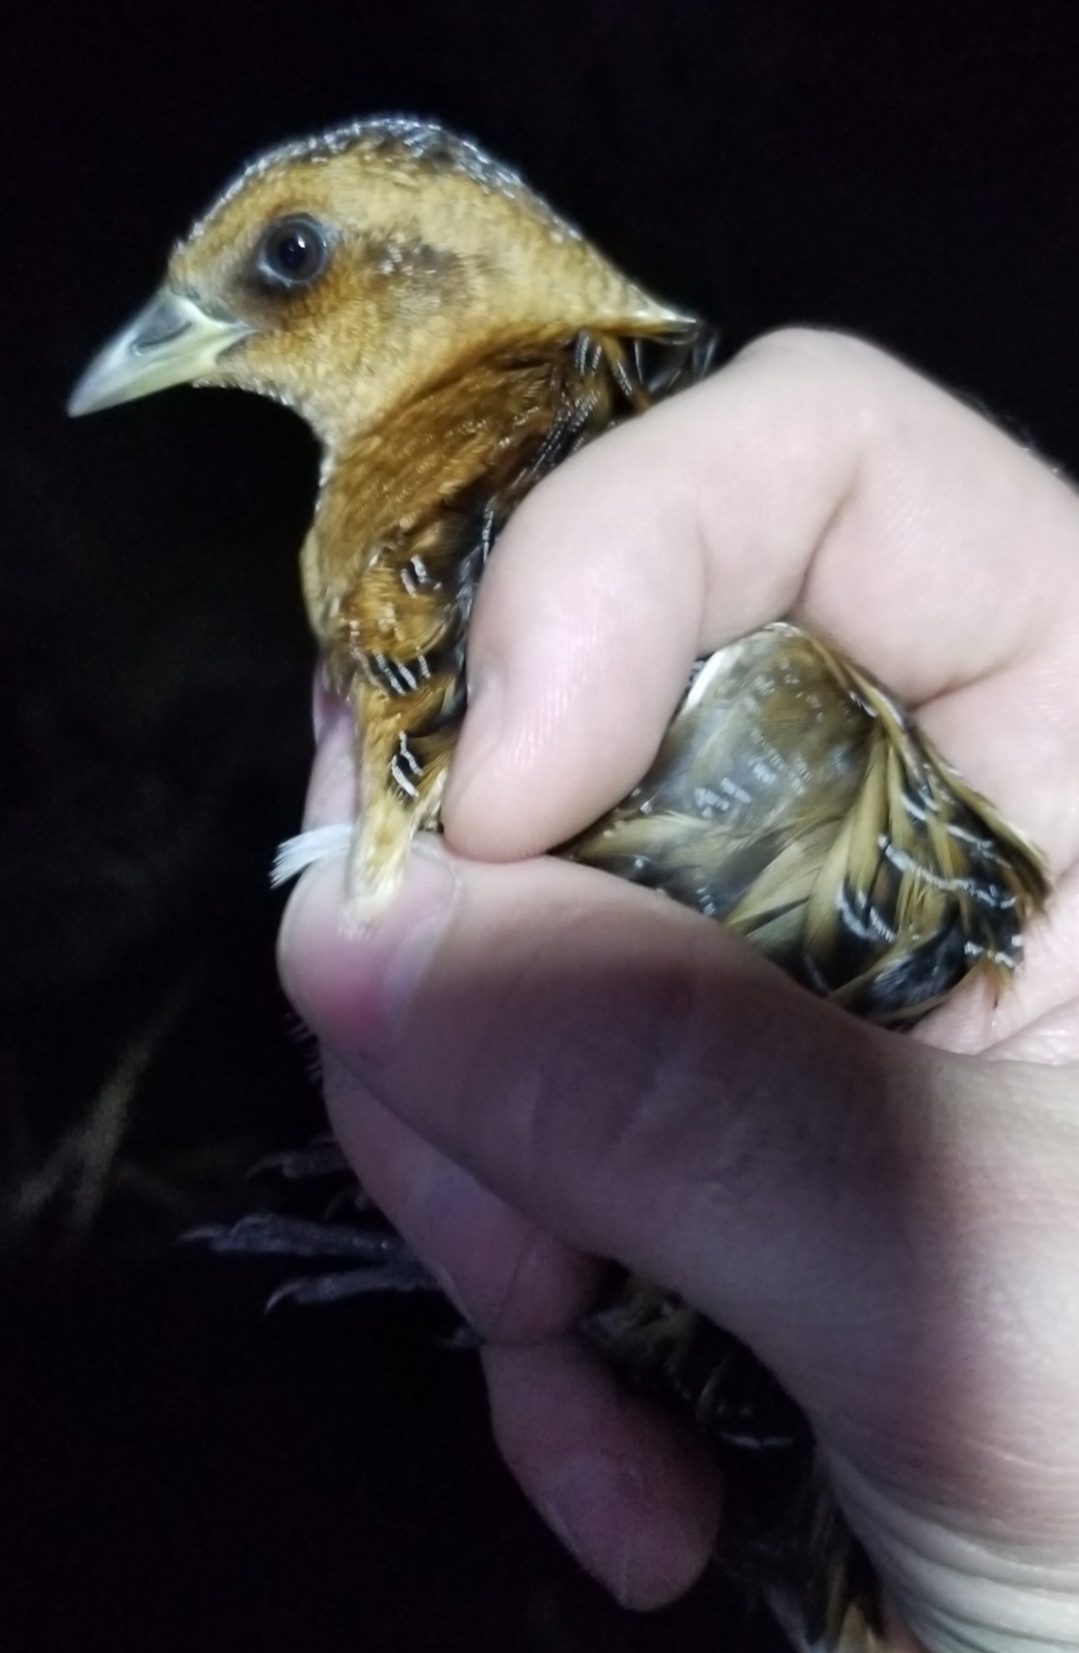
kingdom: Animalia
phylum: Chordata
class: Aves
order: Gruiformes
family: Rallidae
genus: Coturnicops
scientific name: Coturnicops noveboracensis
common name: Yellow rail
